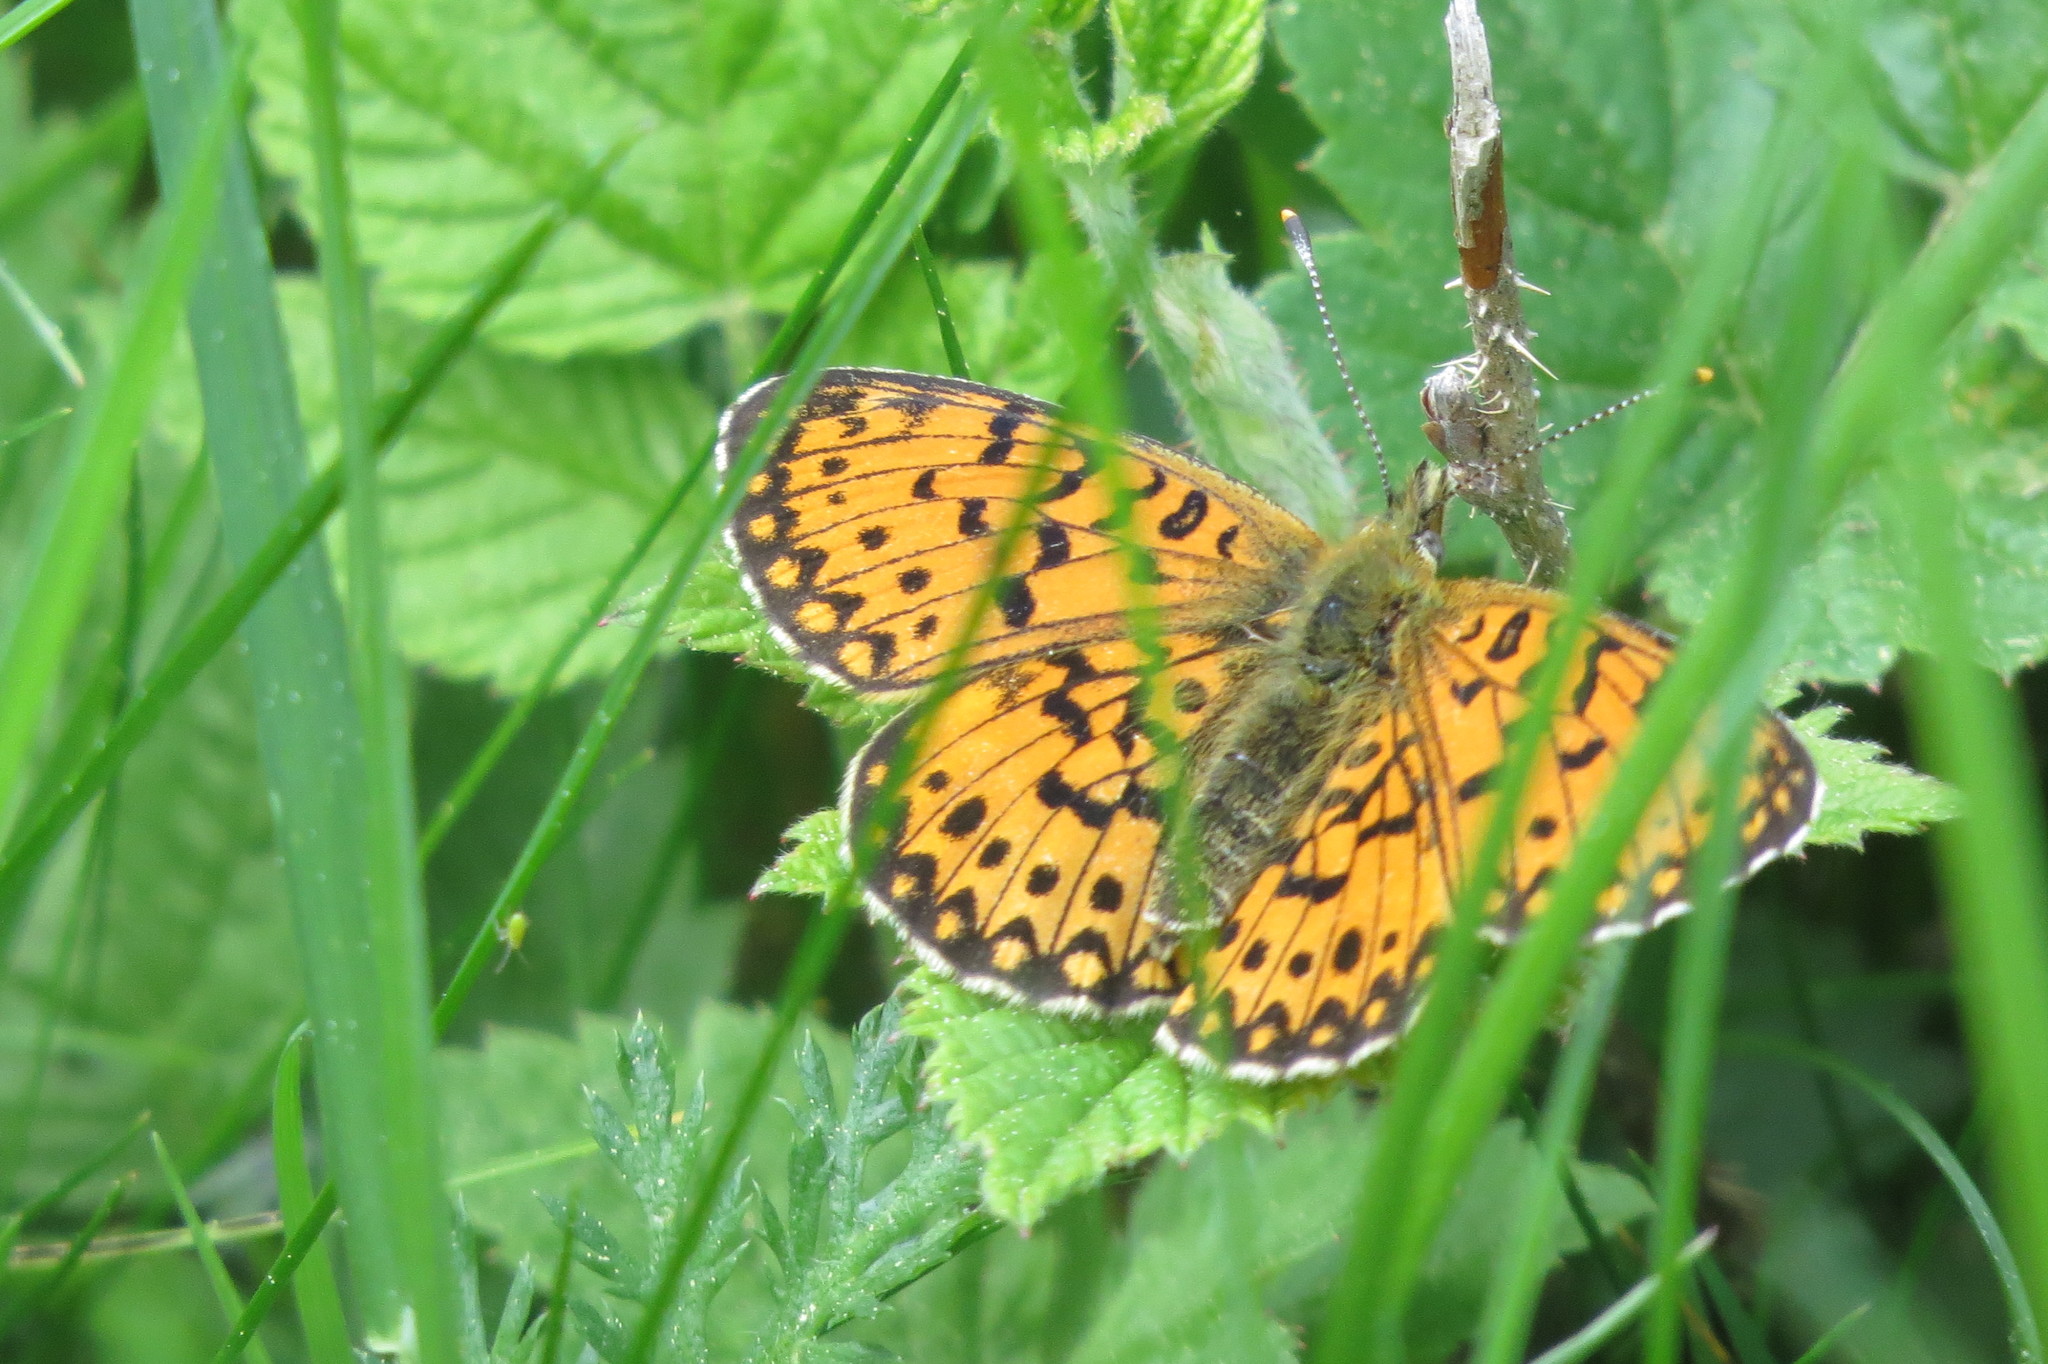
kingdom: Animalia
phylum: Arthropoda
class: Insecta
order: Lepidoptera
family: Nymphalidae
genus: Boloria
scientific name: Boloria selene
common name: Small pearl-bordered fritillary
